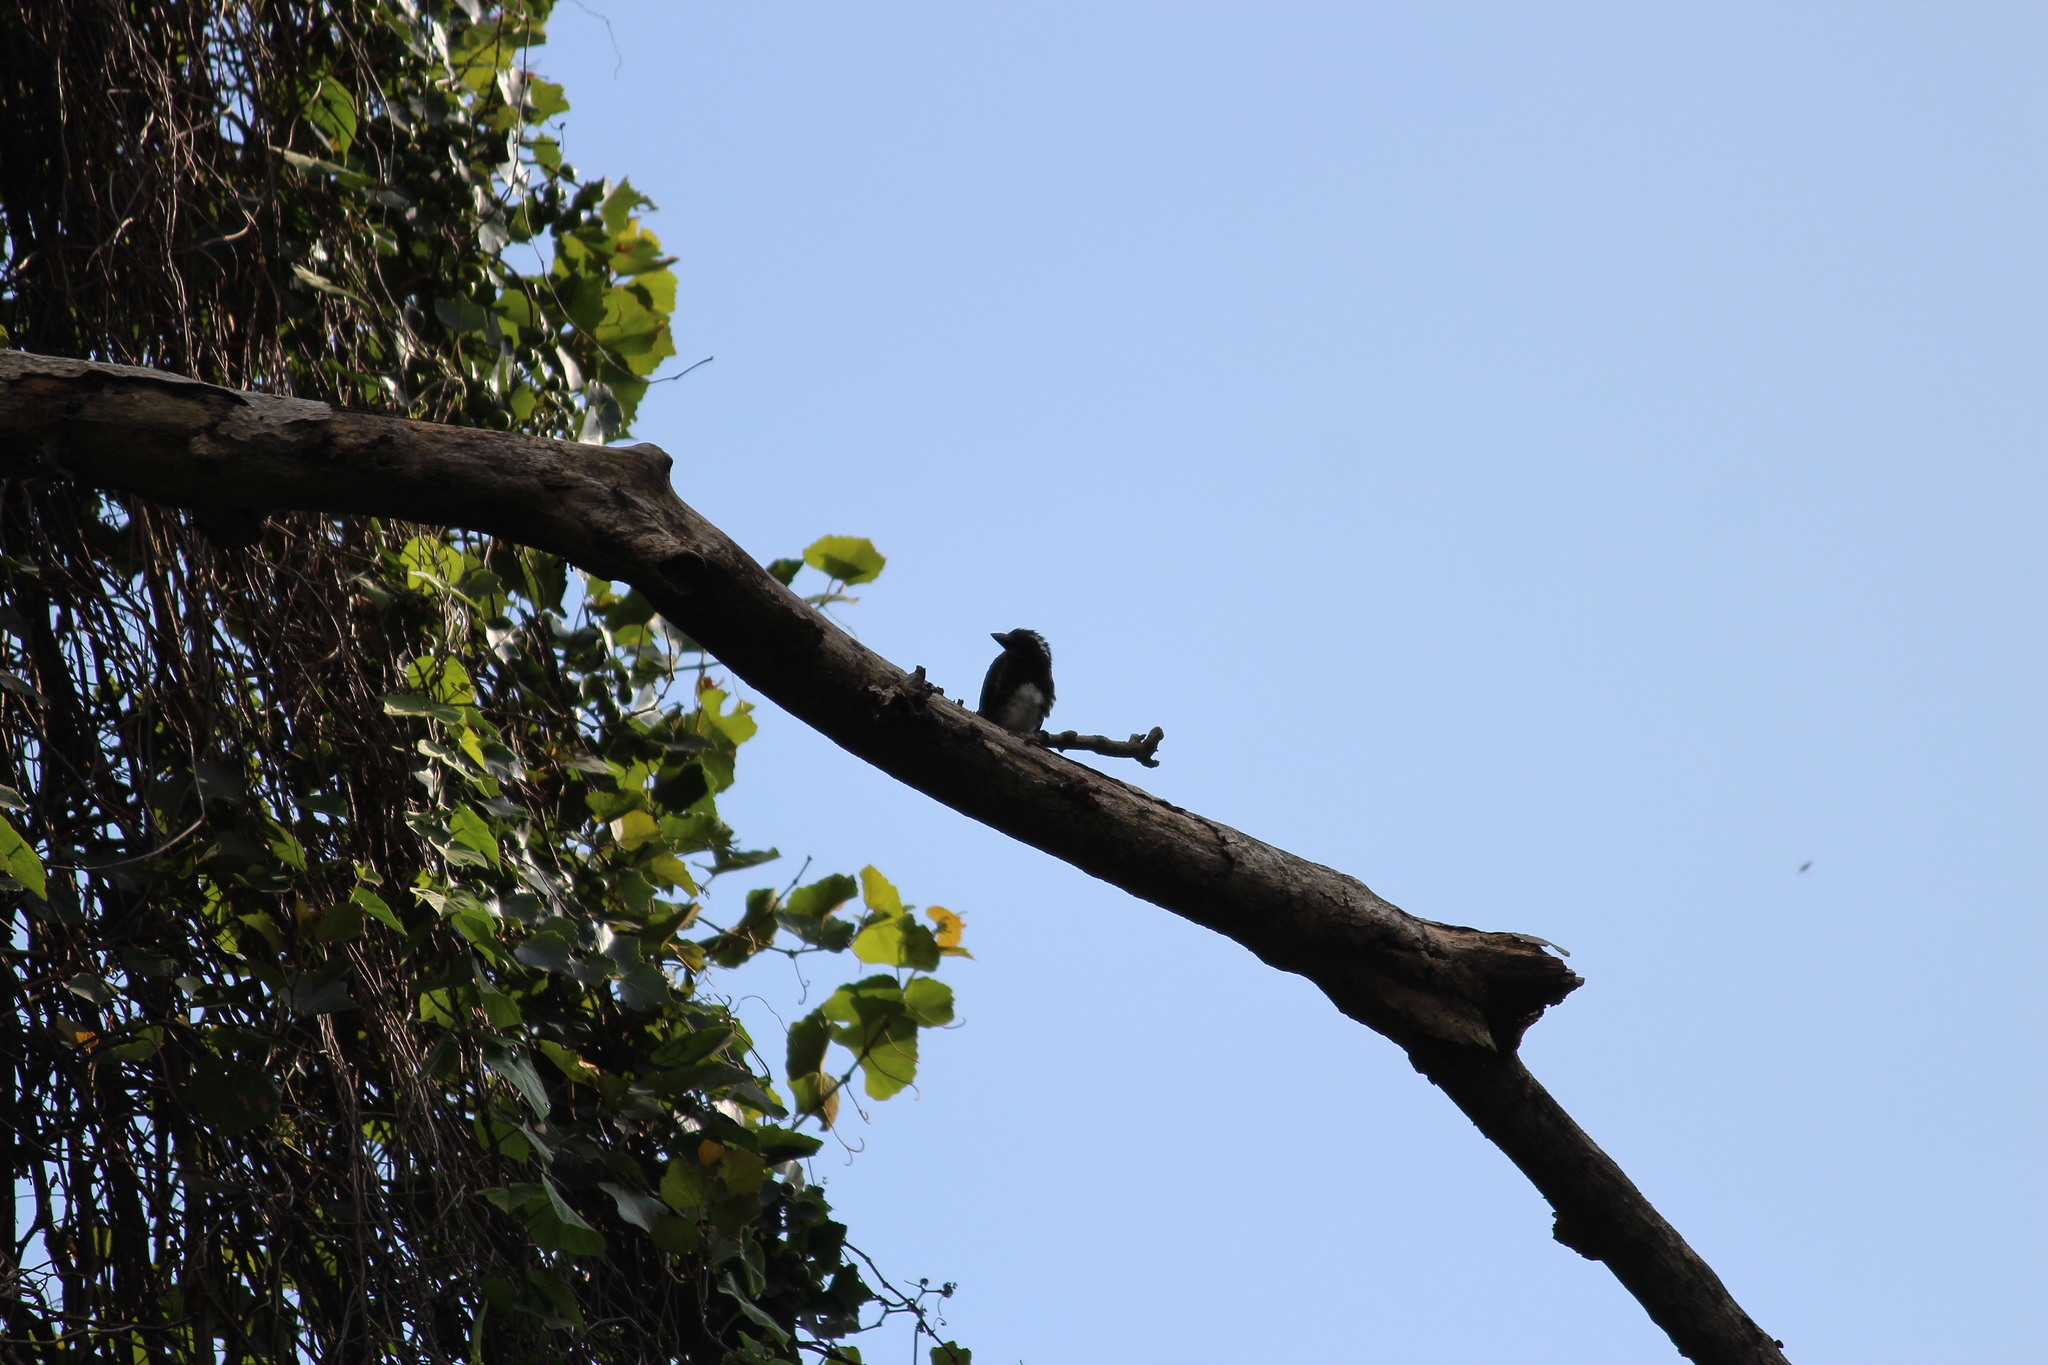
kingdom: Animalia
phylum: Chordata
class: Aves
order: Piciformes
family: Lybiidae
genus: Stactolaema
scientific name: Stactolaema leucotis
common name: White-eared barbet
